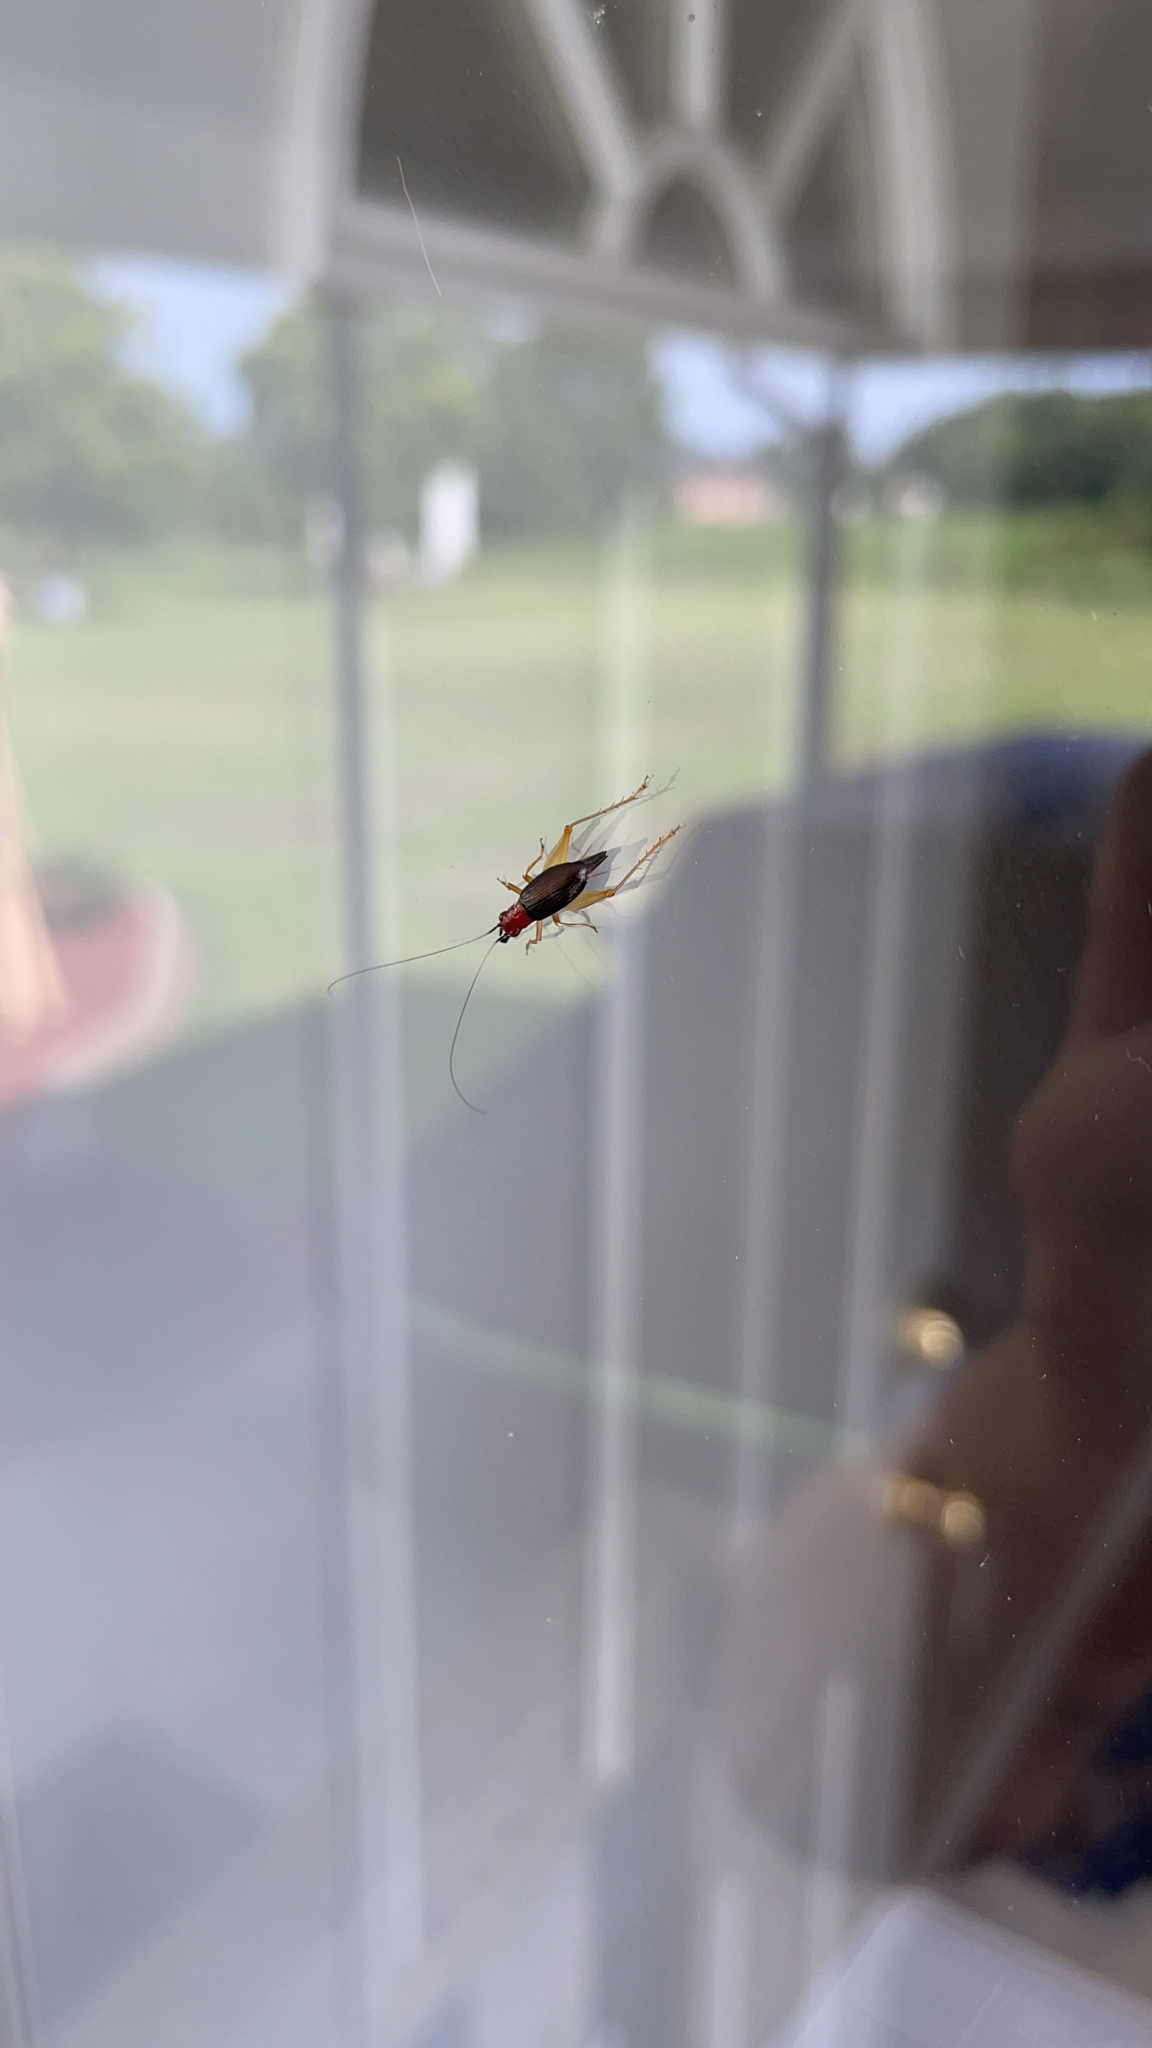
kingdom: Animalia
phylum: Arthropoda
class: Insecta
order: Orthoptera
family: Trigonidiidae
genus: Phyllopalpus
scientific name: Phyllopalpus pulchellus
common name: Handsome trig
